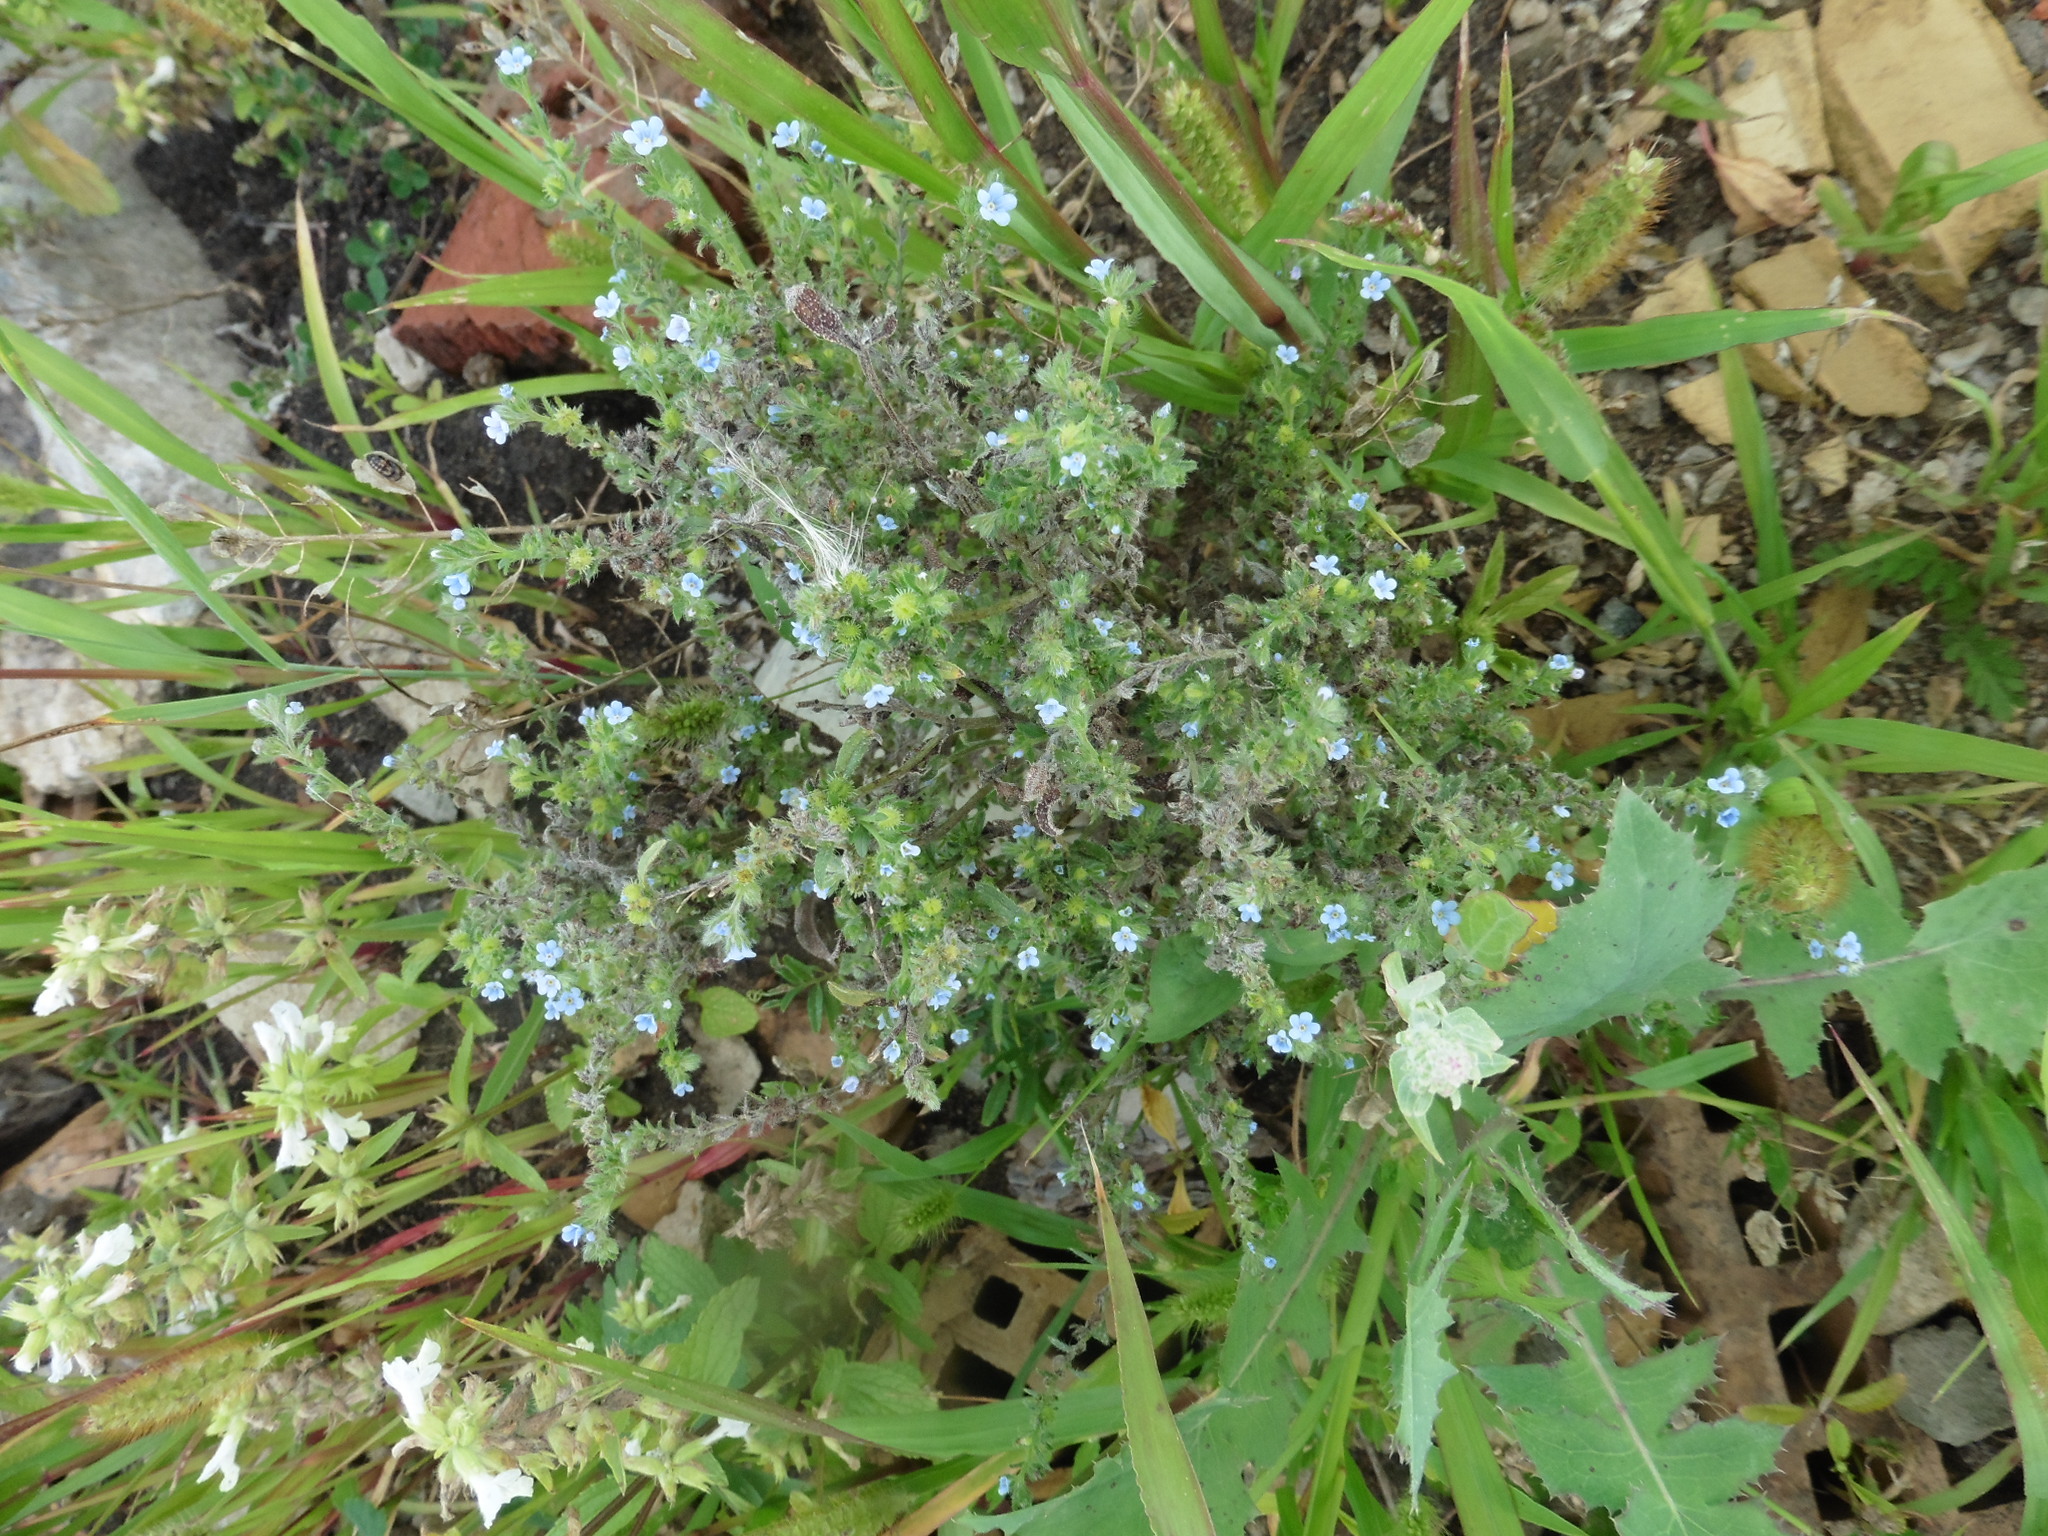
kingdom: Plantae
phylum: Tracheophyta
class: Magnoliopsida
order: Boraginales
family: Boraginaceae
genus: Lappula
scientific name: Lappula squarrosa
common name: European stickseed
